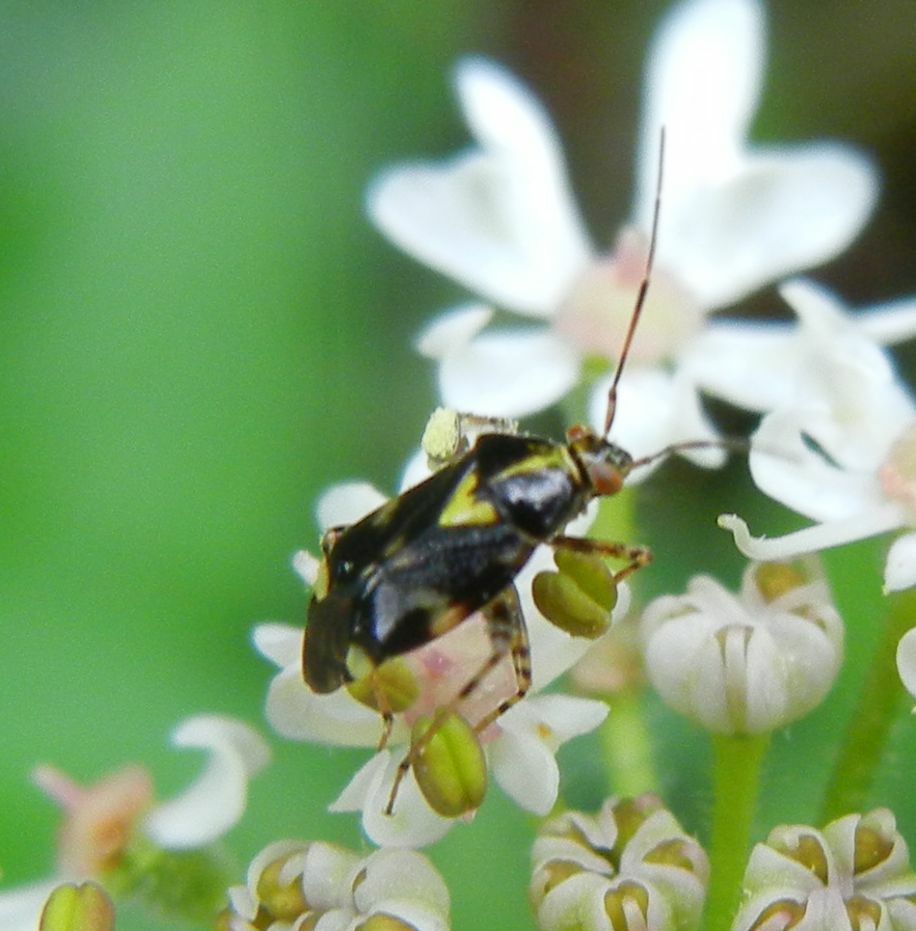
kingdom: Animalia
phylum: Arthropoda
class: Insecta
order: Hemiptera
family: Miridae
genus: Liocoris
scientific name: Liocoris tripustulatus
